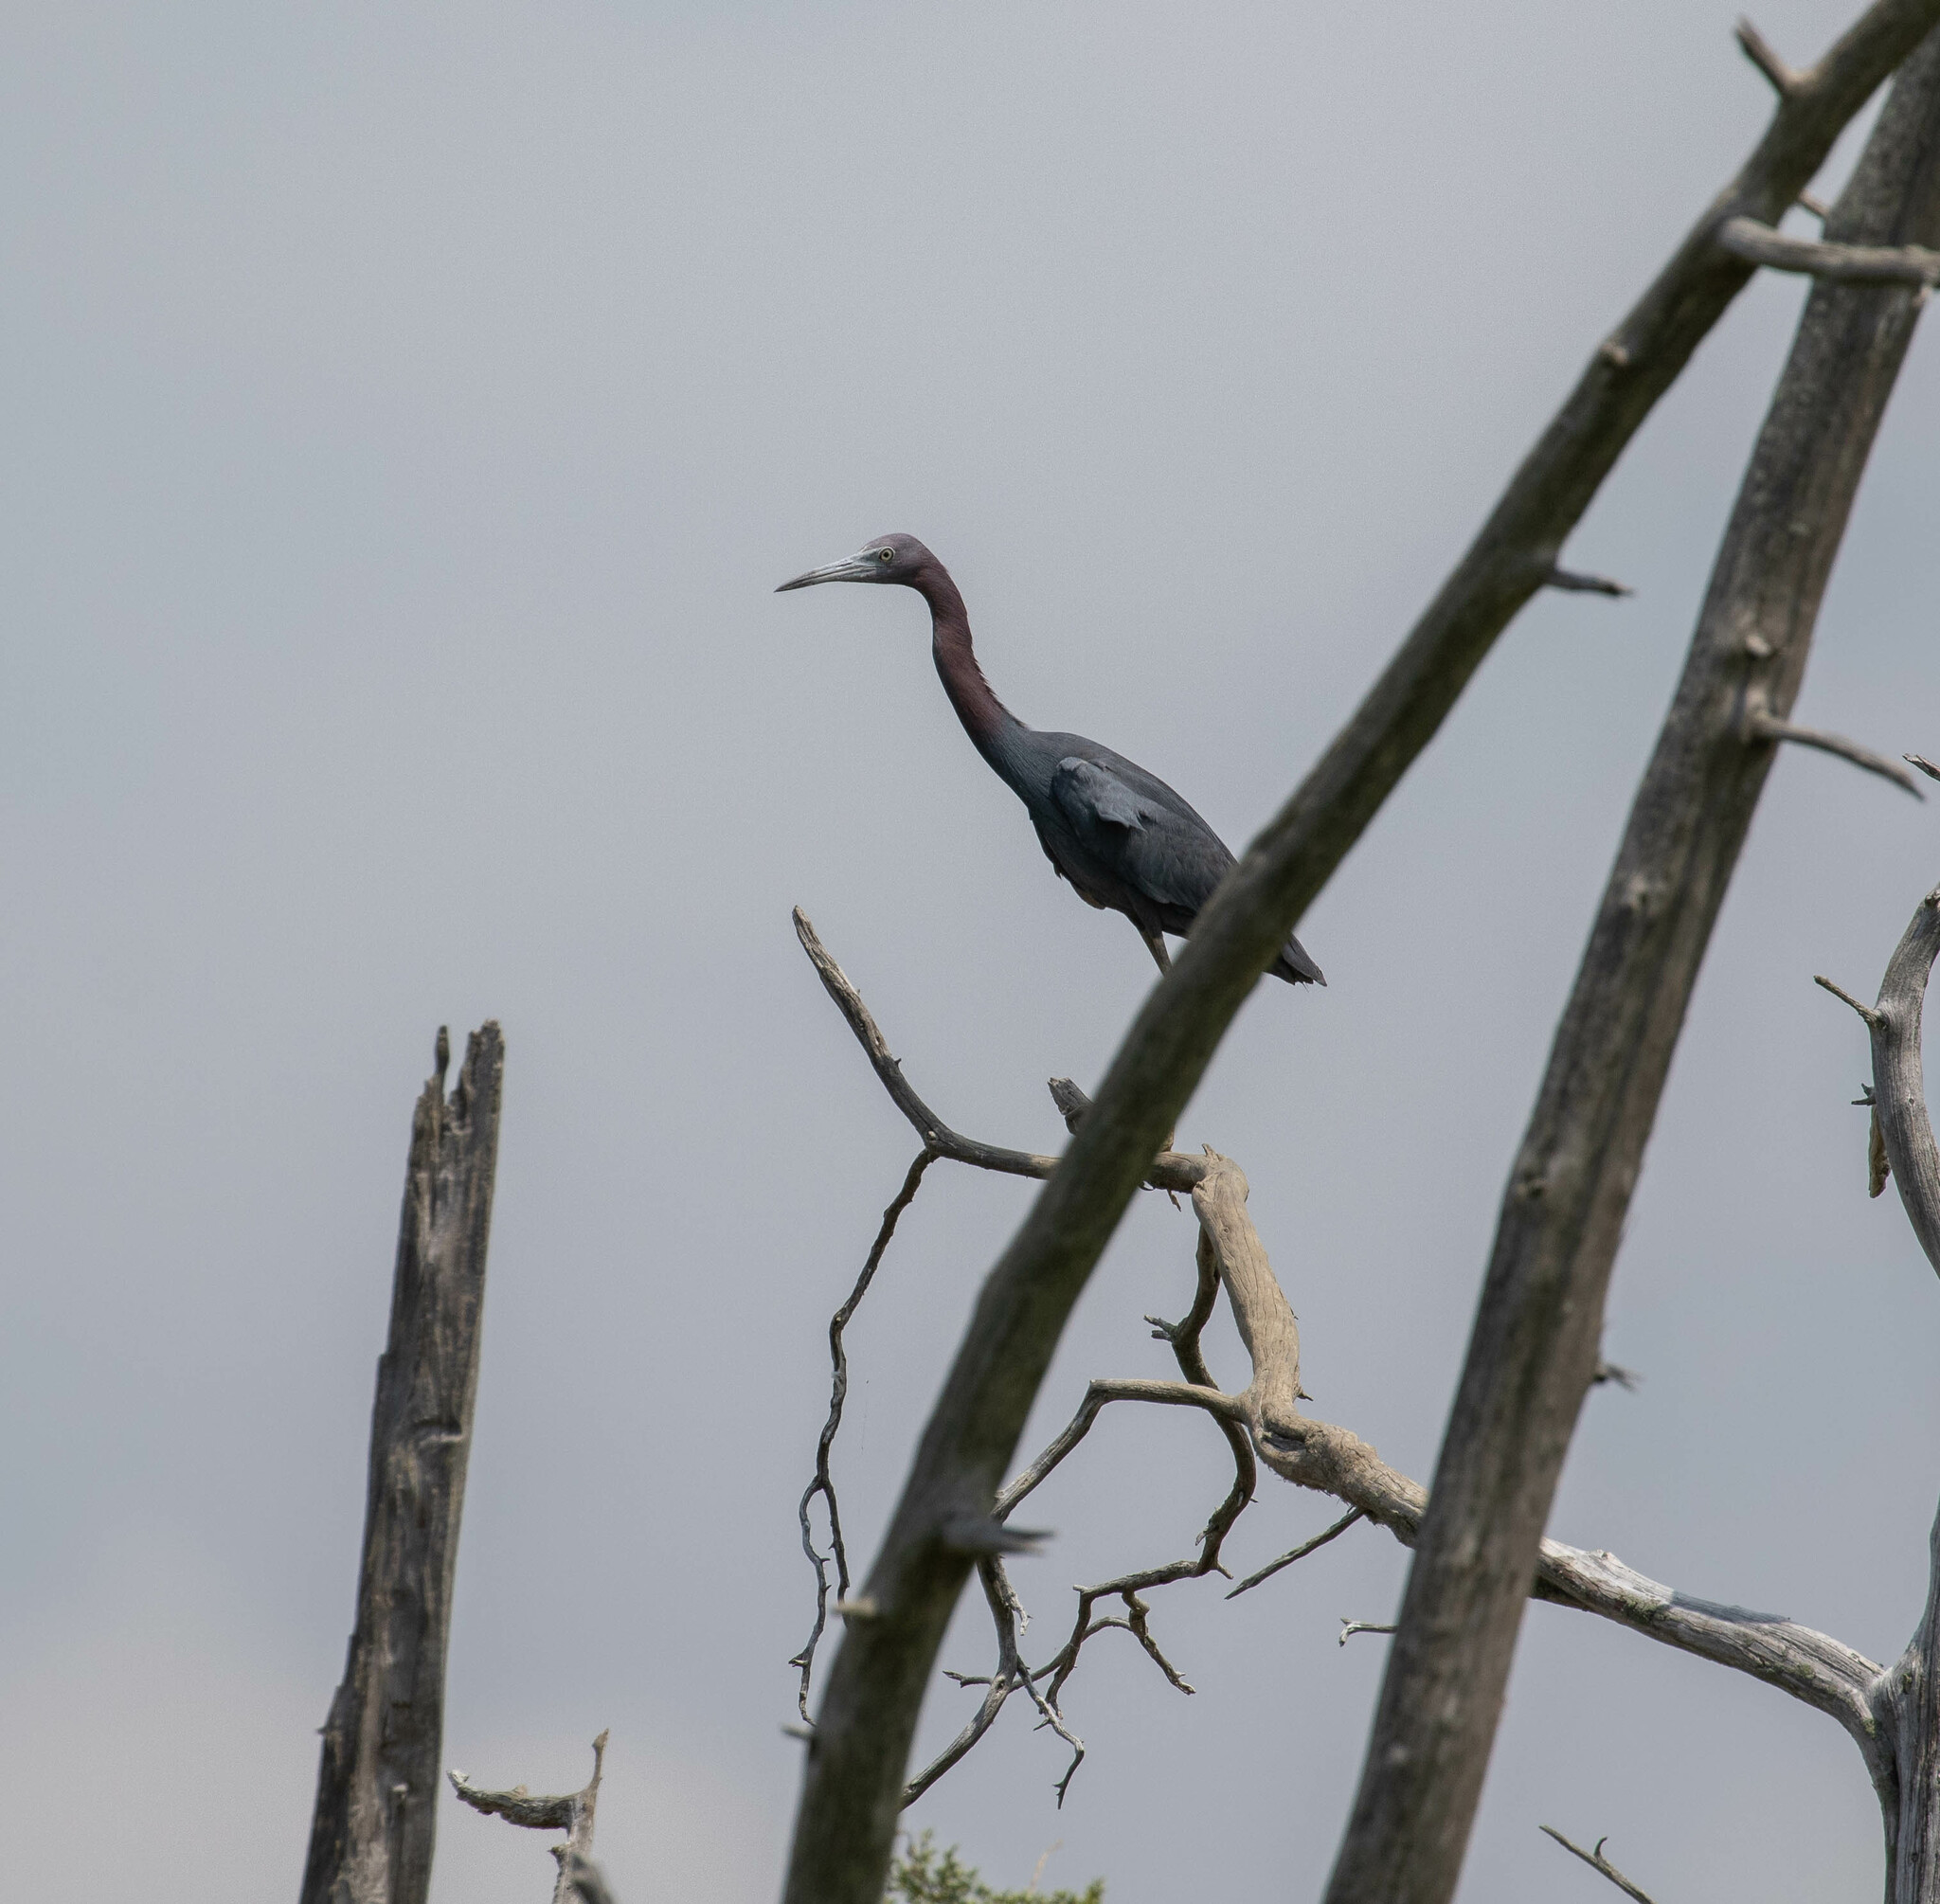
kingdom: Animalia
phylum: Chordata
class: Aves
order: Pelecaniformes
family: Ardeidae
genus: Egretta
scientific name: Egretta caerulea
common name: Little blue heron
